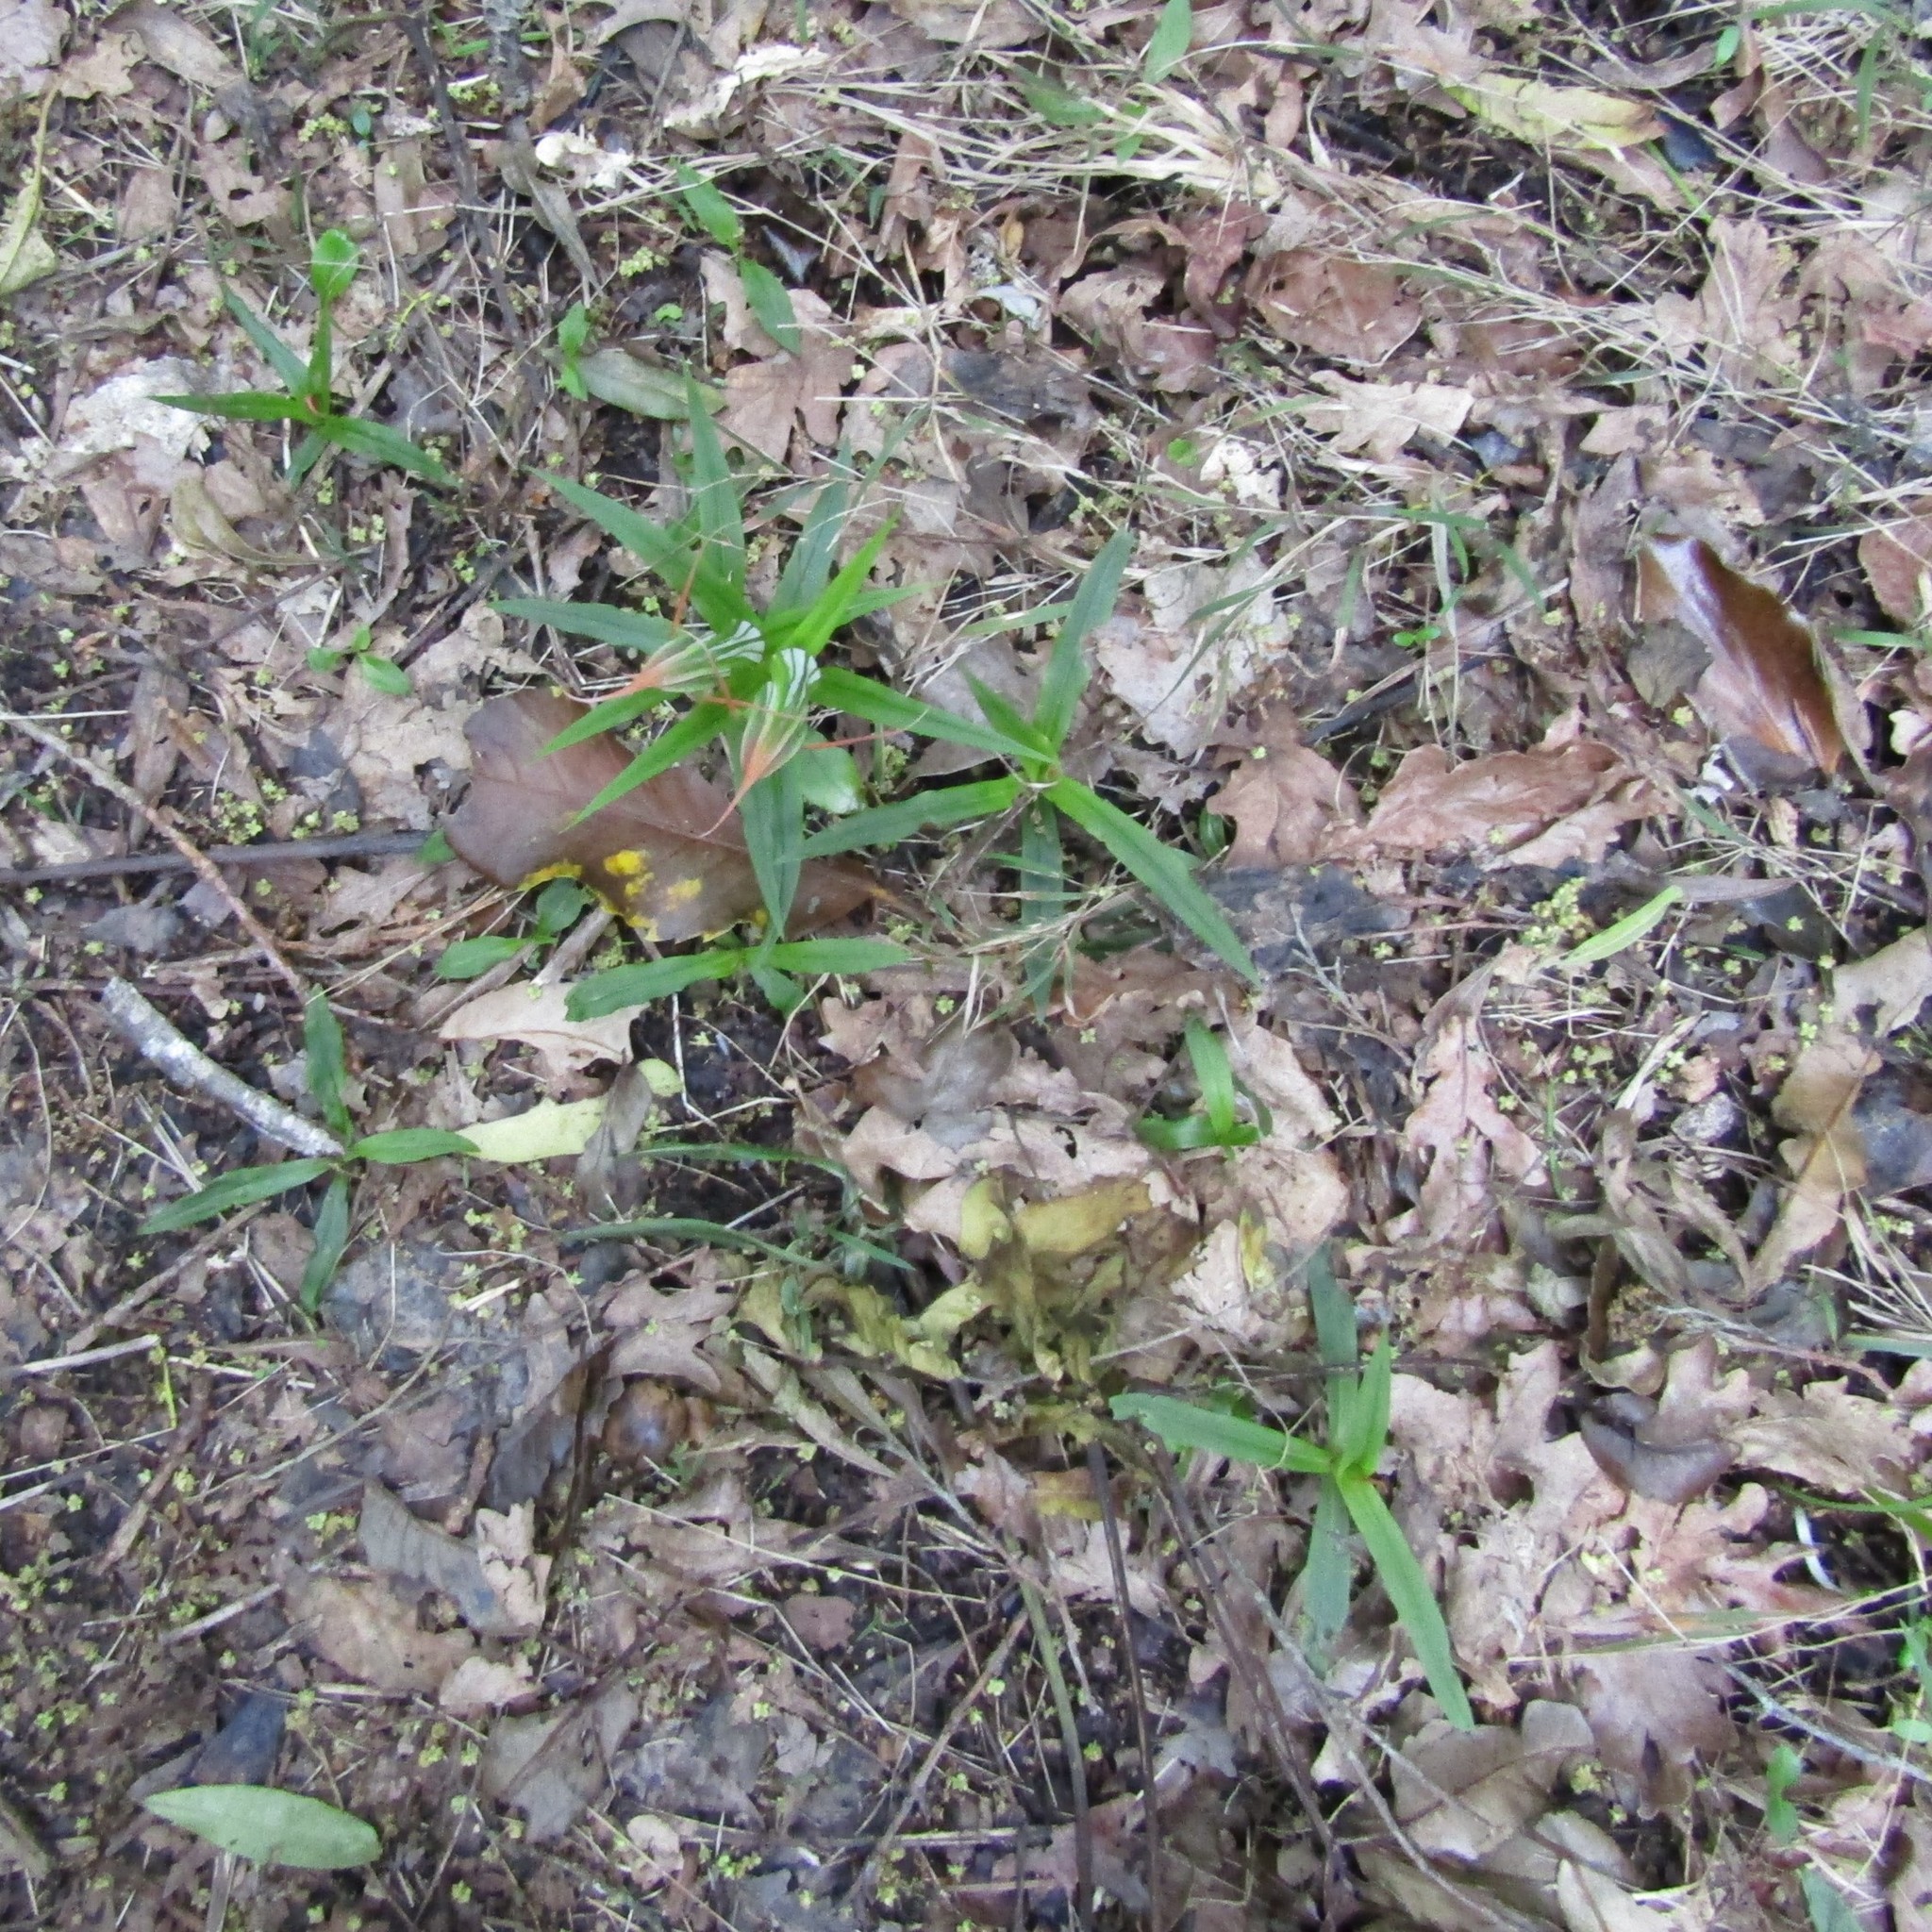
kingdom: Plantae
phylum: Tracheophyta
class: Liliopsida
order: Asparagales
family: Orchidaceae
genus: Pterostylis
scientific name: Pterostylis banksii
